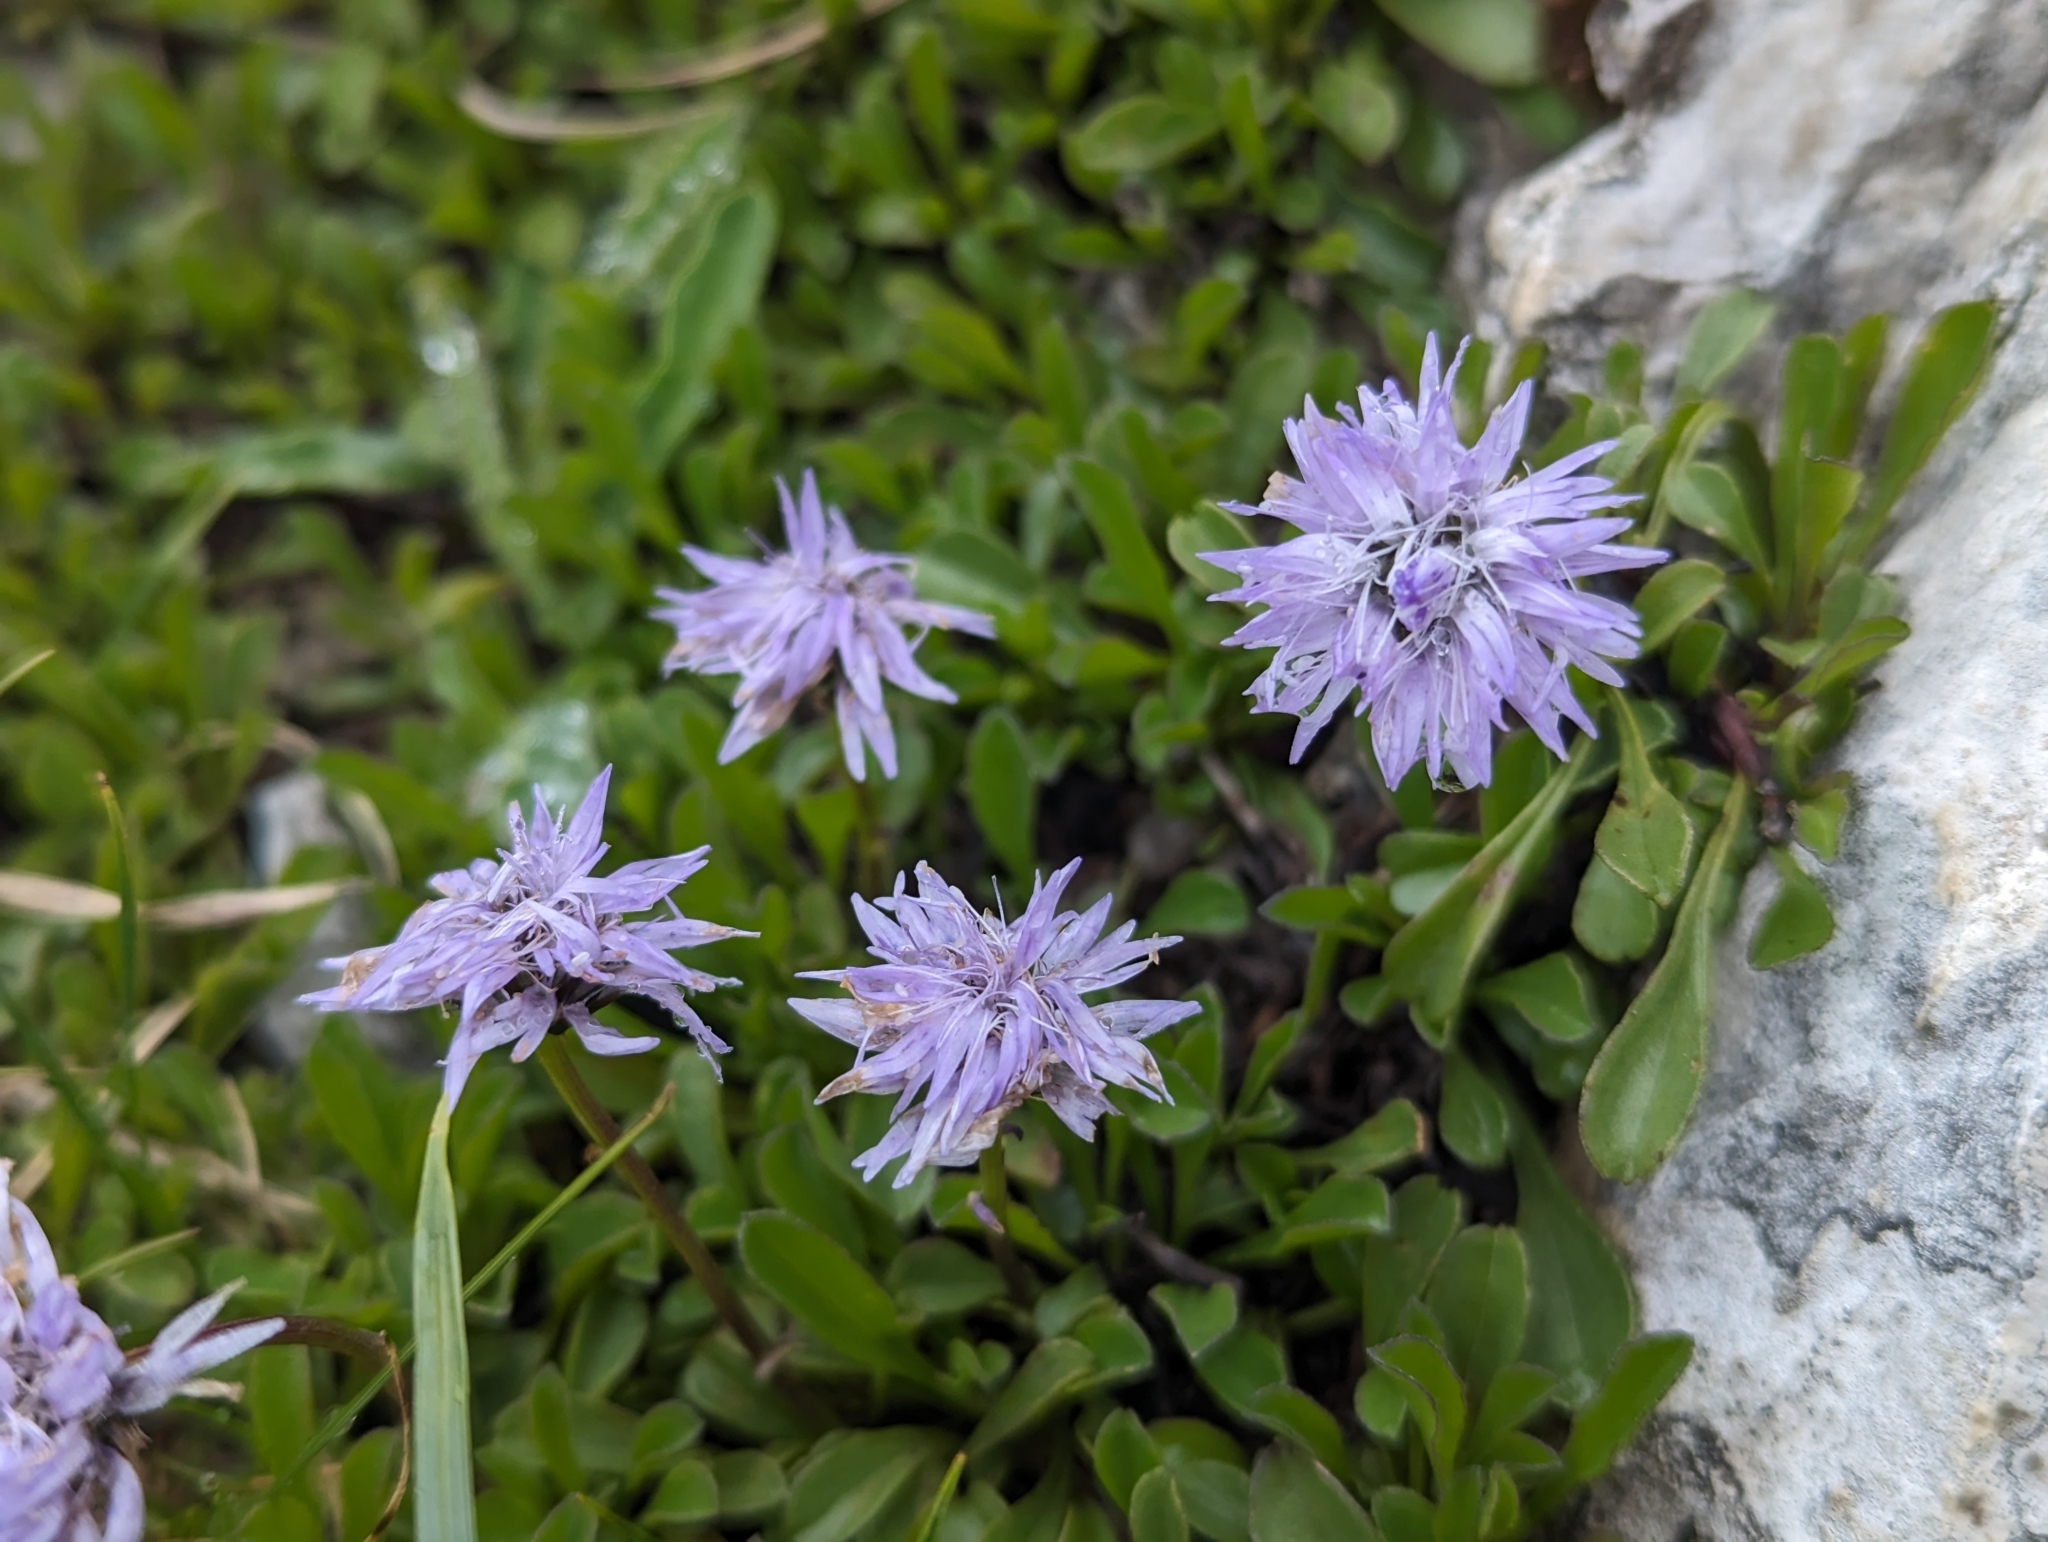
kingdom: Plantae
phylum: Tracheophyta
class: Magnoliopsida
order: Lamiales
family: Plantaginaceae
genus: Globularia
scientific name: Globularia cordifolia
